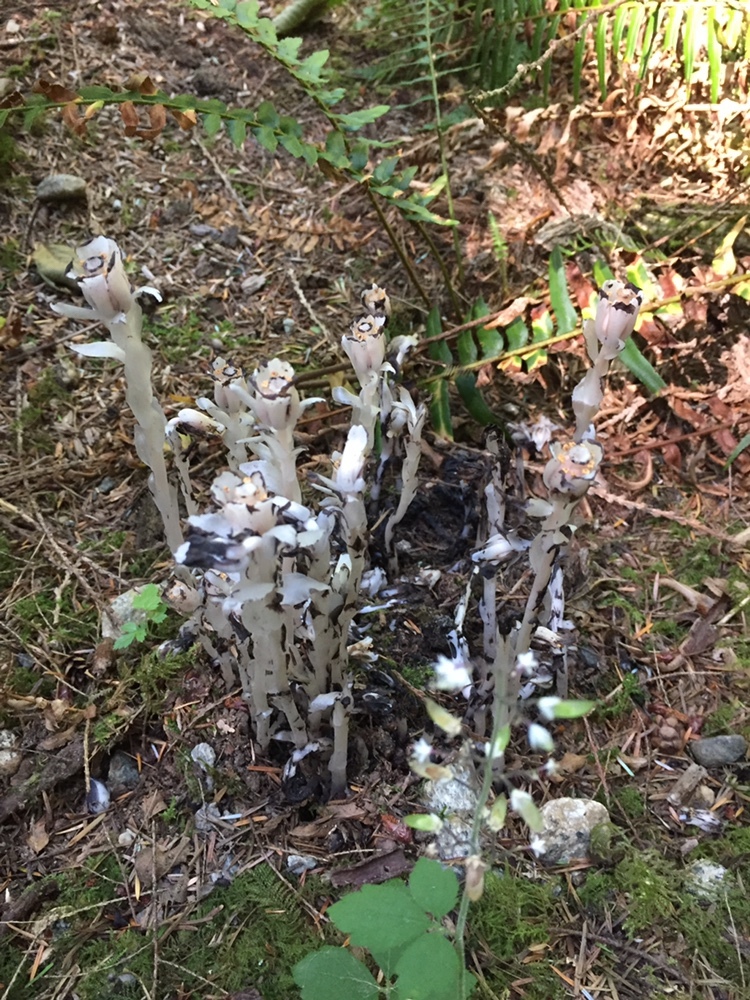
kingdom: Plantae
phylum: Tracheophyta
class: Magnoliopsida
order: Ericales
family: Ericaceae
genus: Monotropa
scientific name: Monotropa uniflora
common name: Convulsion root
